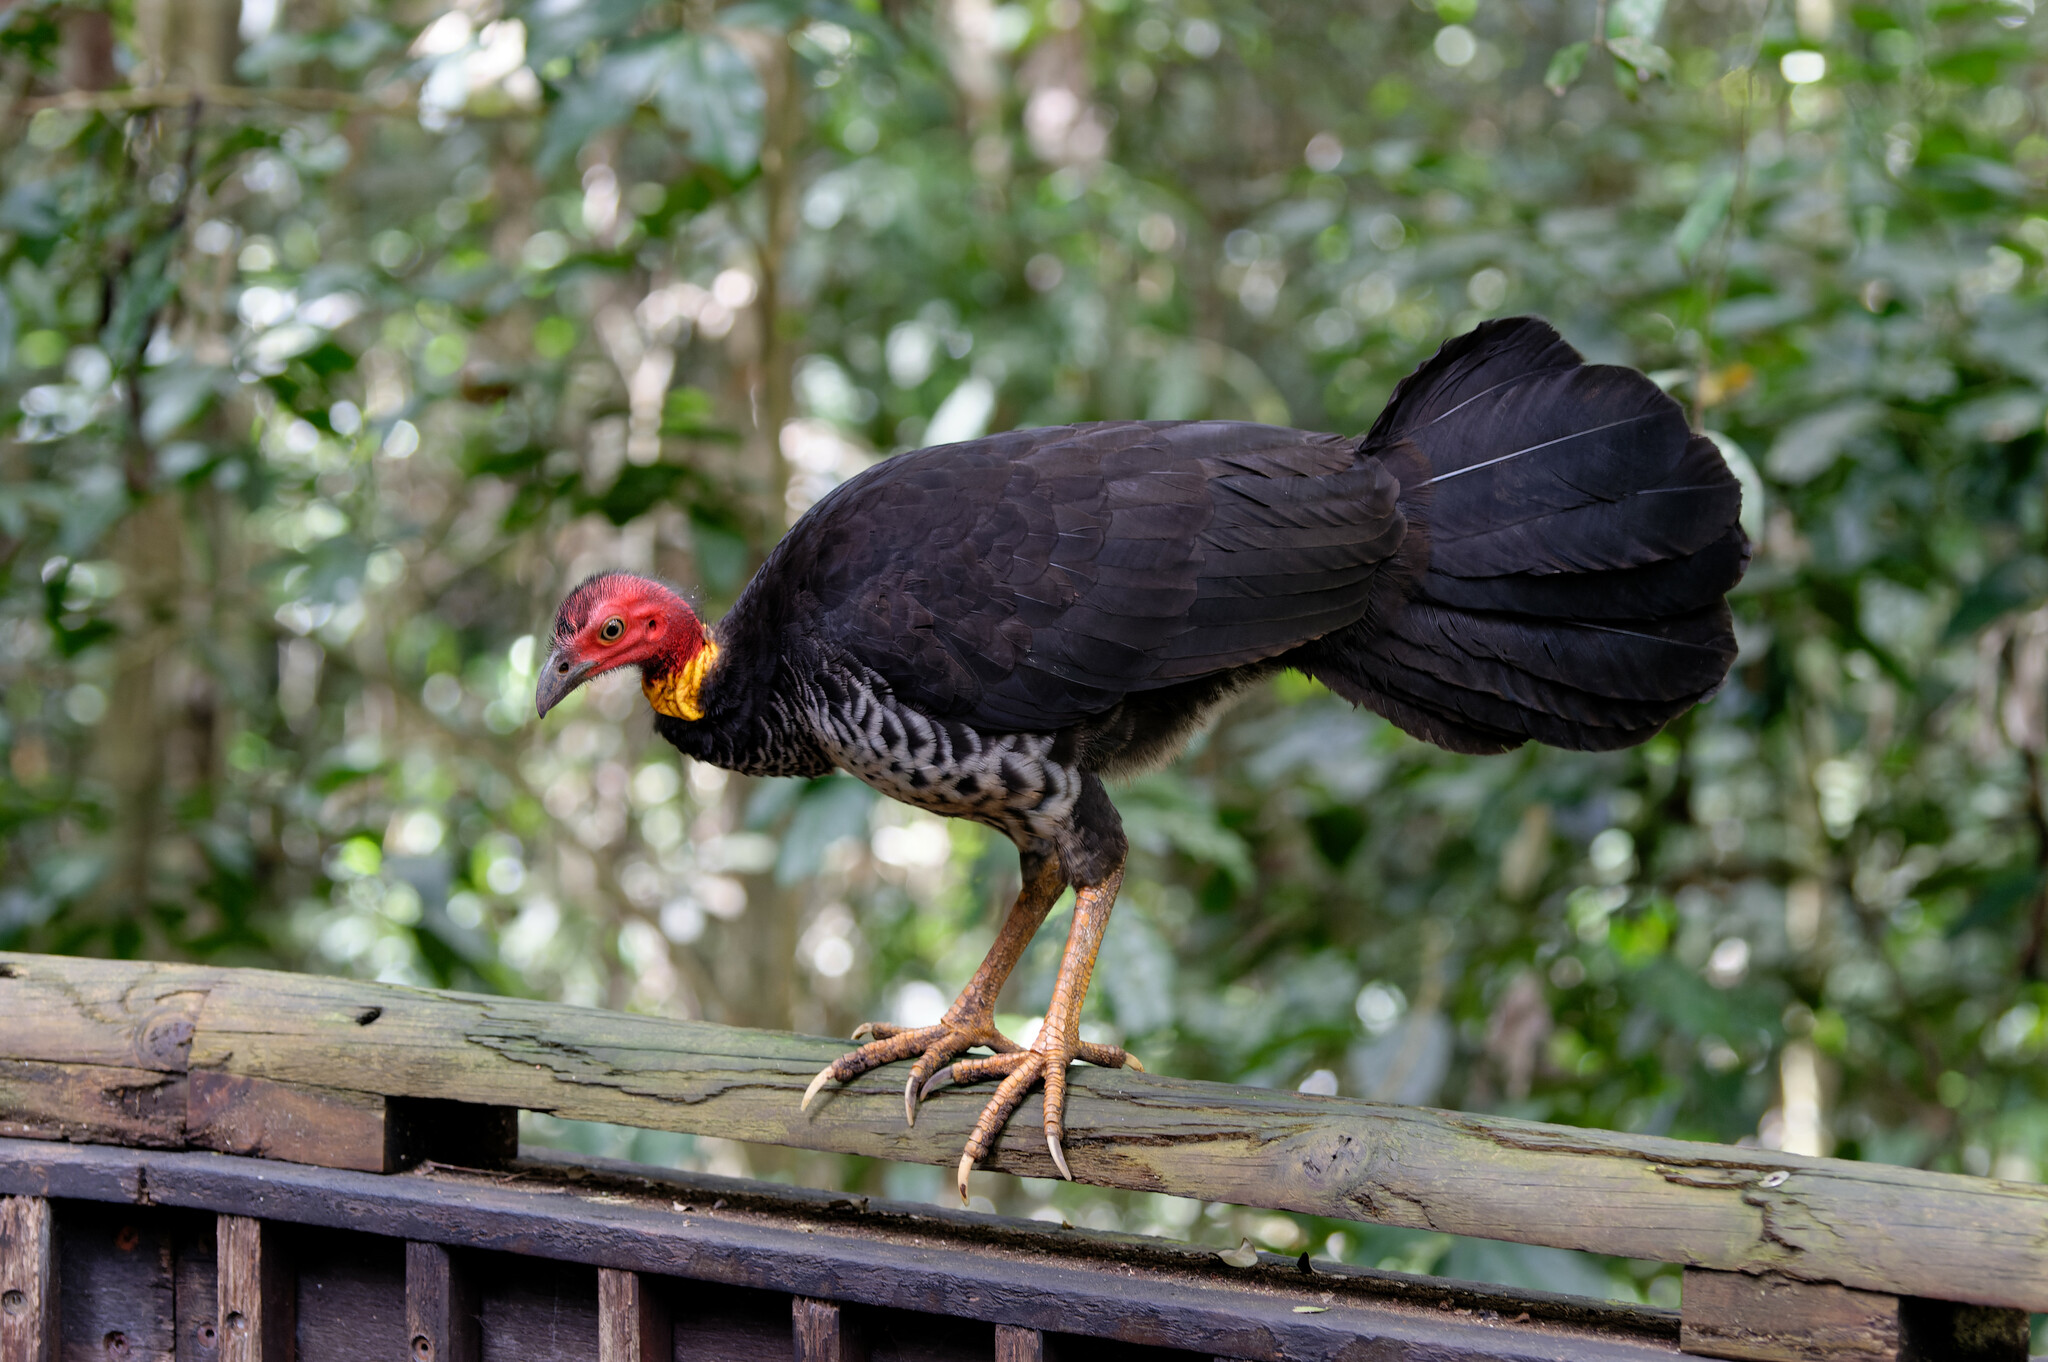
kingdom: Animalia
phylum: Chordata
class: Aves
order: Galliformes
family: Megapodiidae
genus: Alectura
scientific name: Alectura lathami
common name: Australian brushturkey
